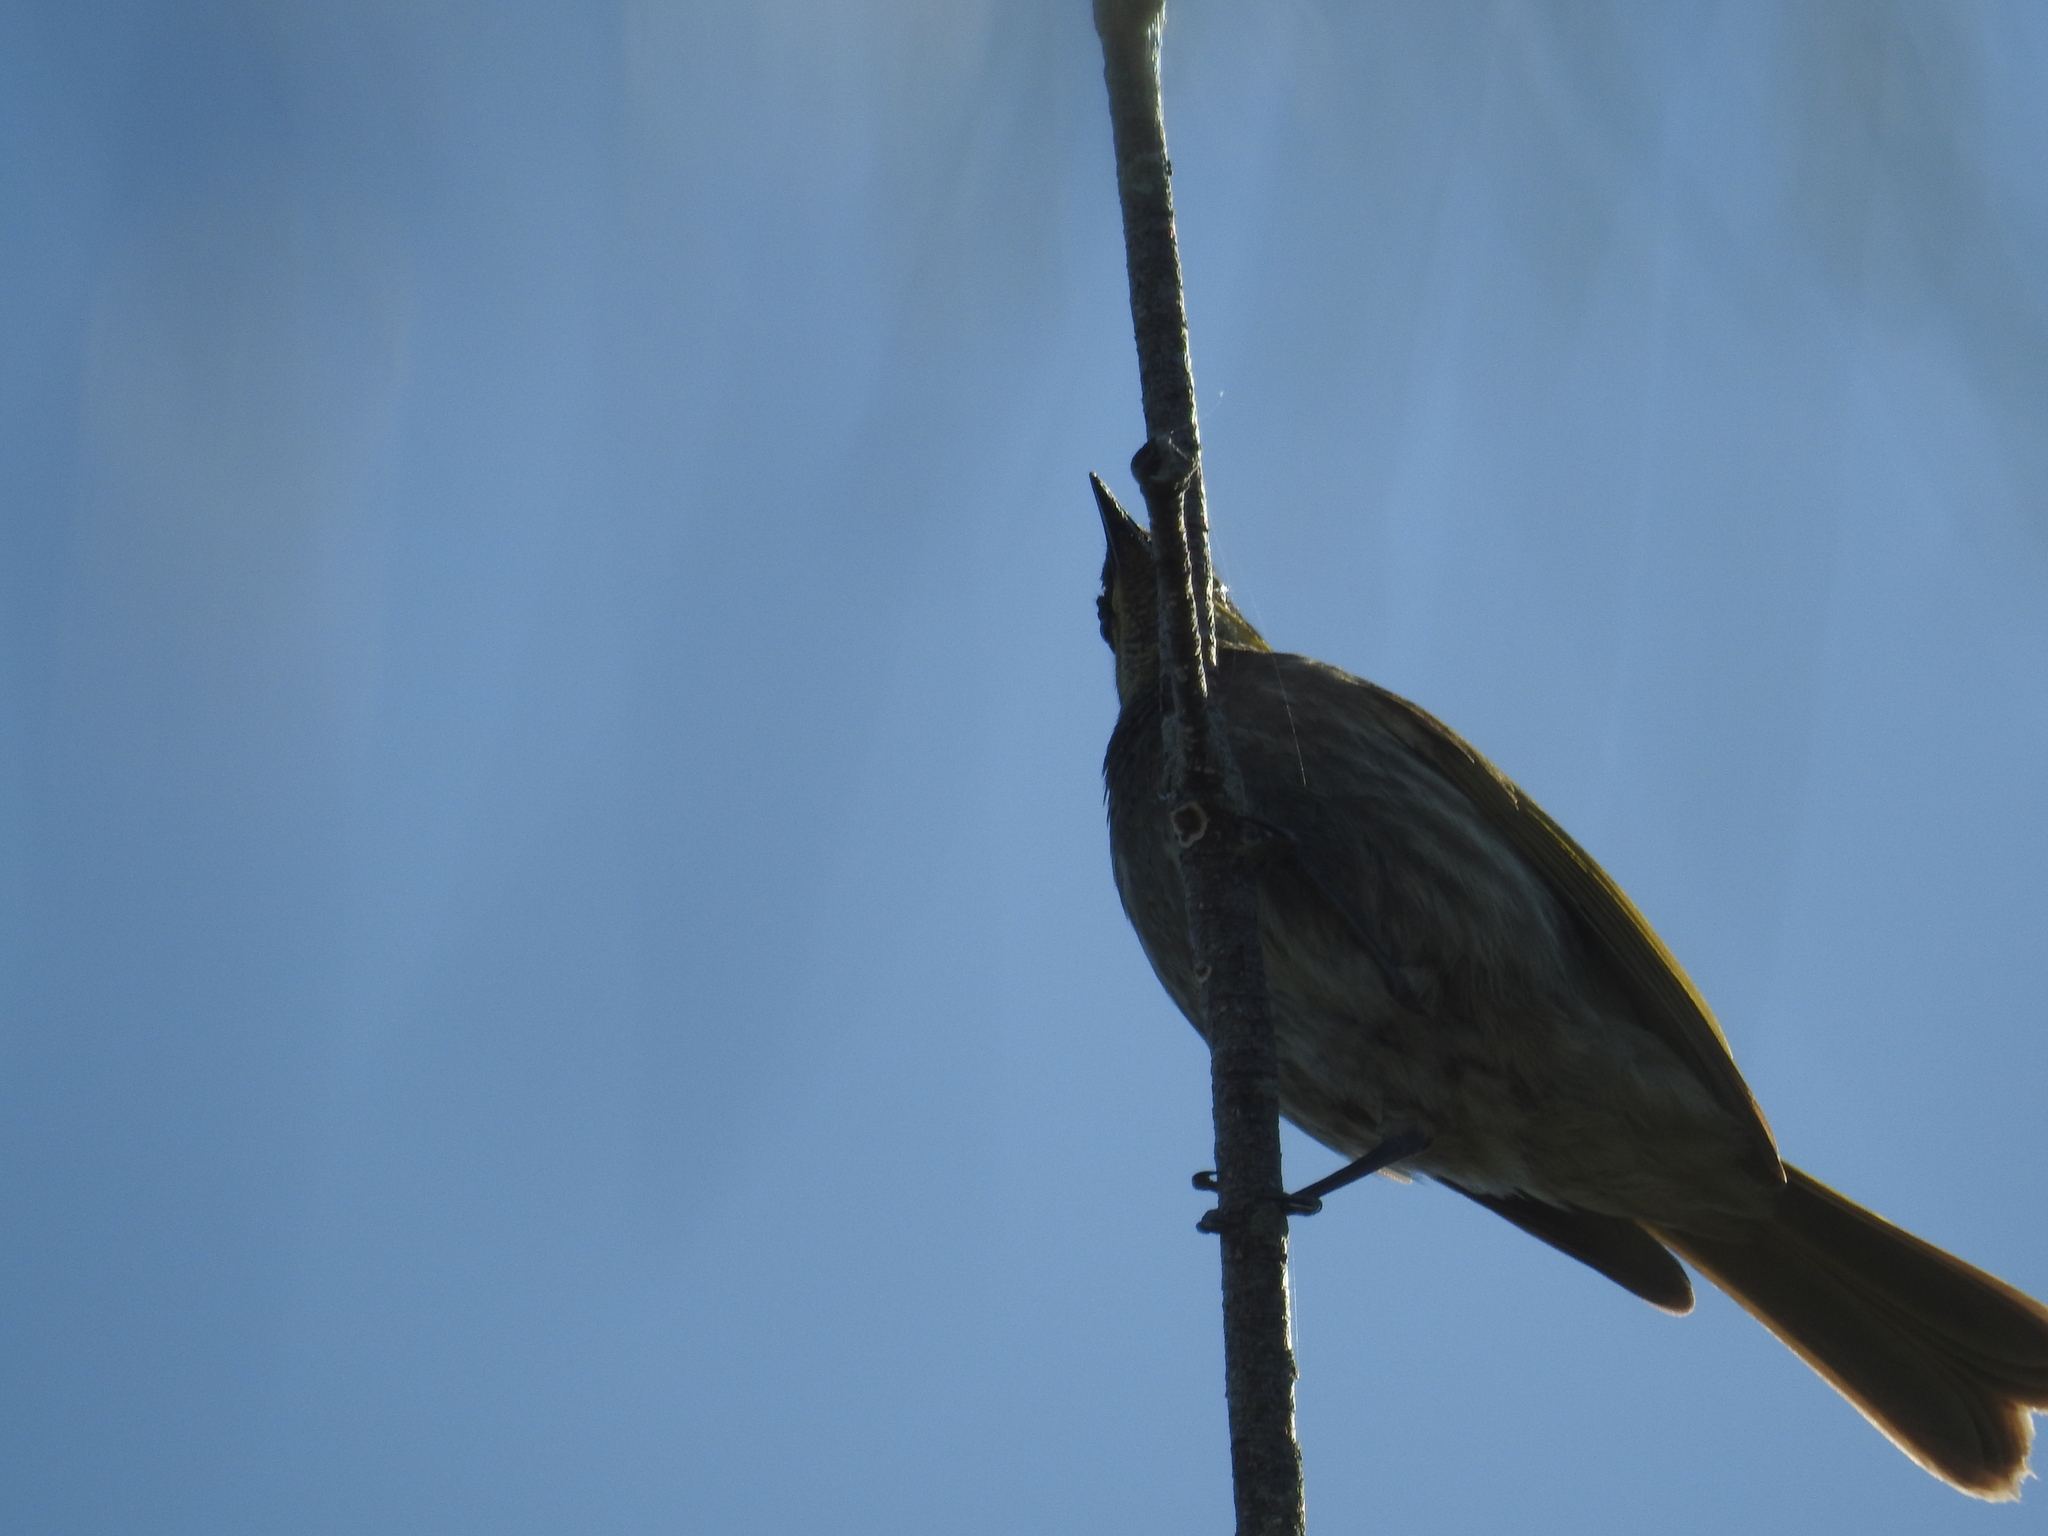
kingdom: Animalia
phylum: Chordata
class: Aves
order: Passeriformes
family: Meliphagidae
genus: Gavicalis
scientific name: Gavicalis fasciogularis
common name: Mangrove honeyeater
